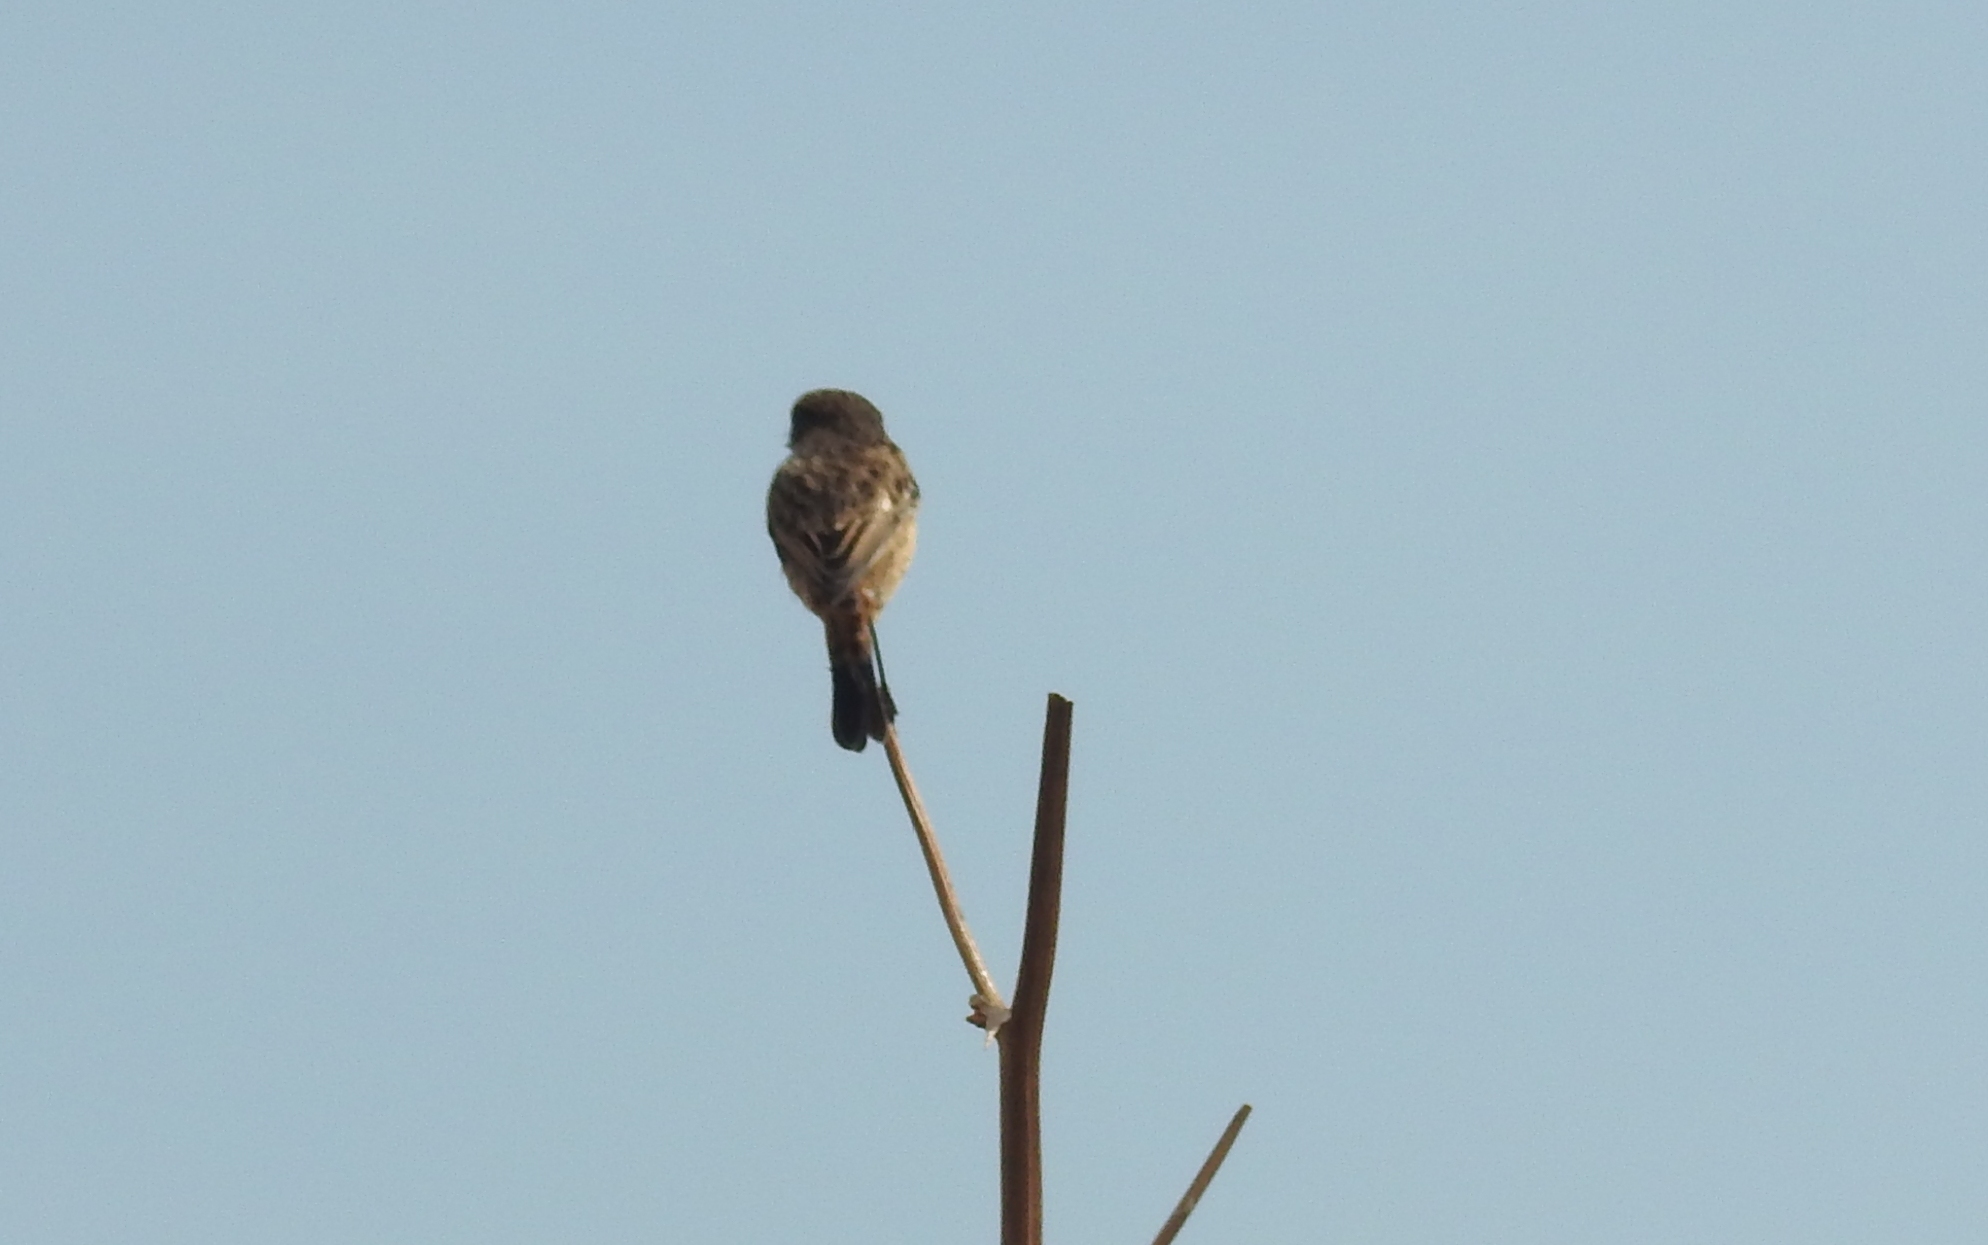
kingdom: Animalia
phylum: Chordata
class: Aves
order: Passeriformes
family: Muscicapidae
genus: Saxicola
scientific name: Saxicola rubicola
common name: European stonechat
